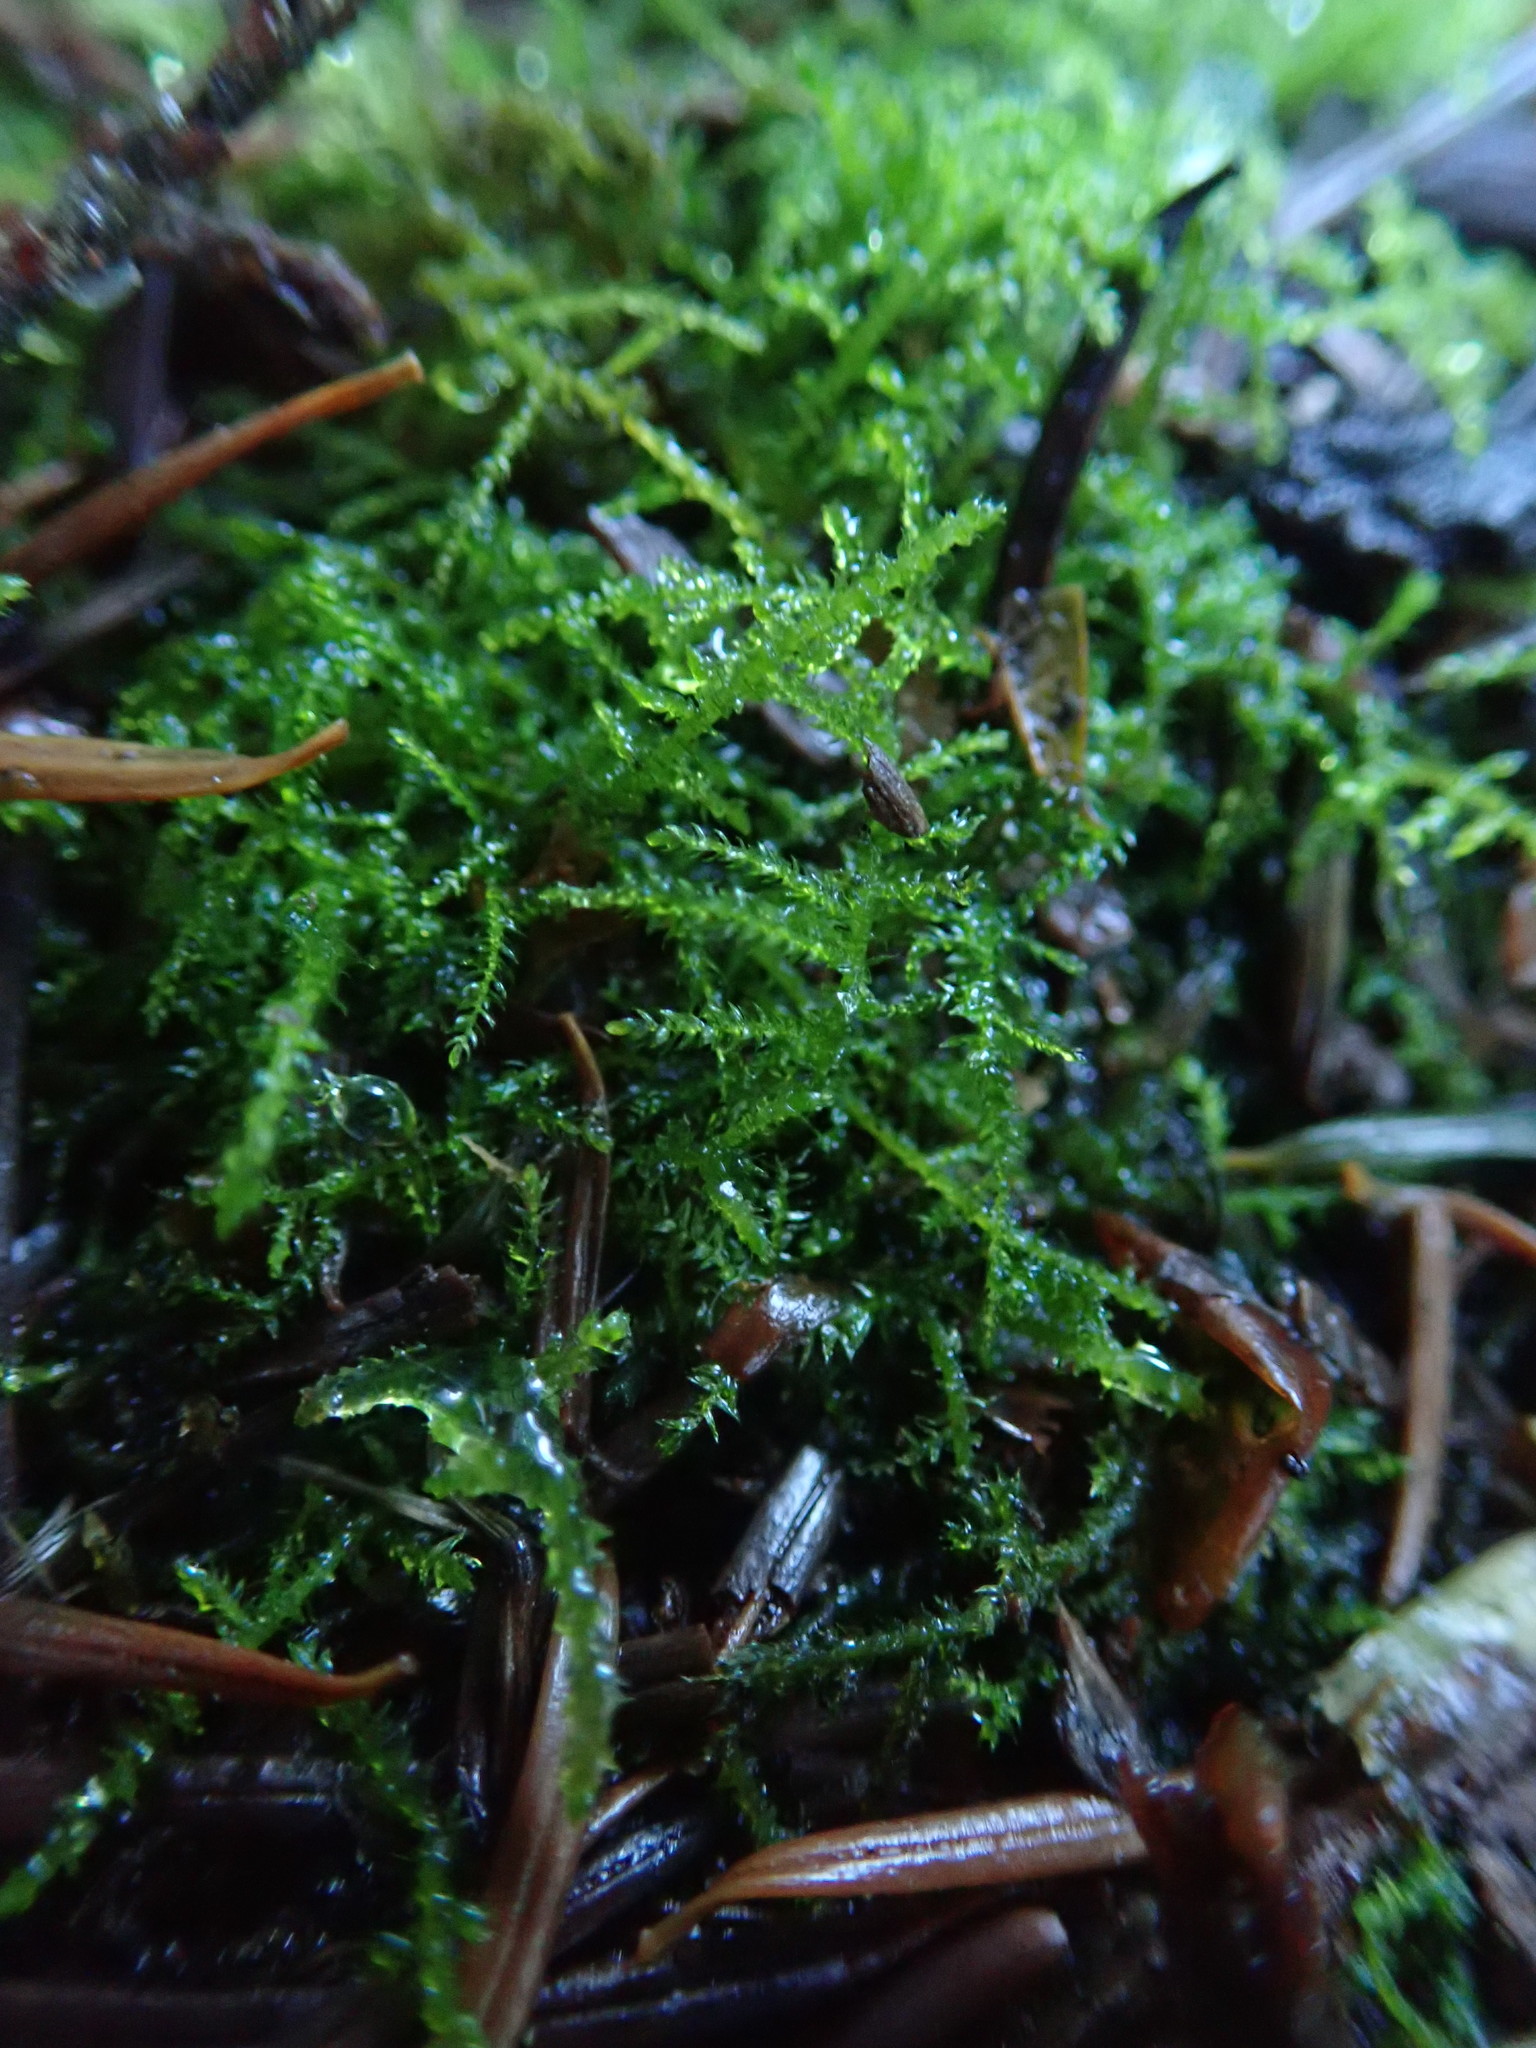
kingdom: Plantae
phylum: Bryophyta
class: Bryopsida
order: Hypnales
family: Brachytheciaceae
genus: Kindbergia
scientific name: Kindbergia praelonga
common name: Slender beaked moss
